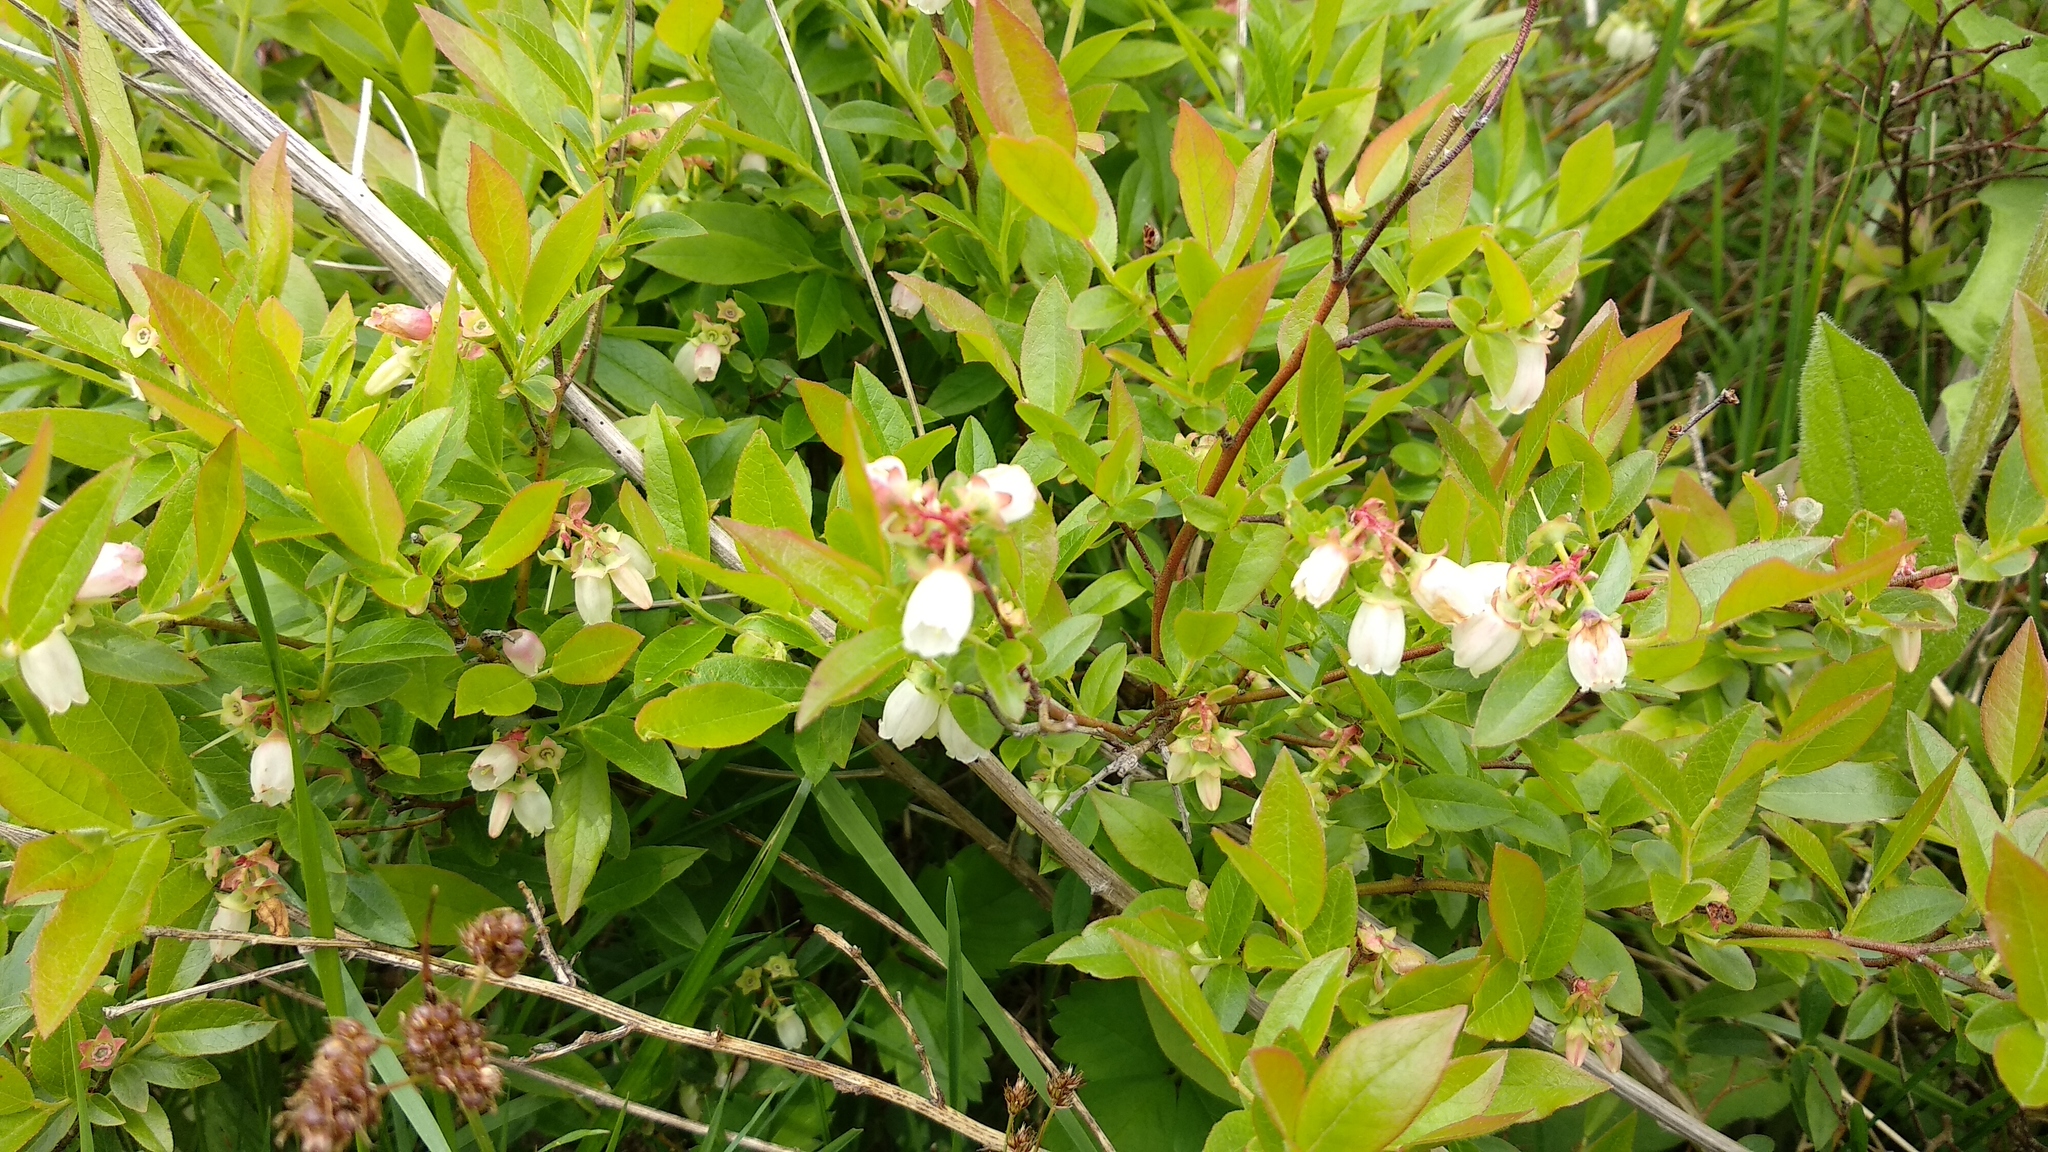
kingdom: Plantae
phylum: Tracheophyta
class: Magnoliopsida
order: Ericales
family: Ericaceae
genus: Vaccinium
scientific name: Vaccinium angustifolium
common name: Early lowbush blueberry
